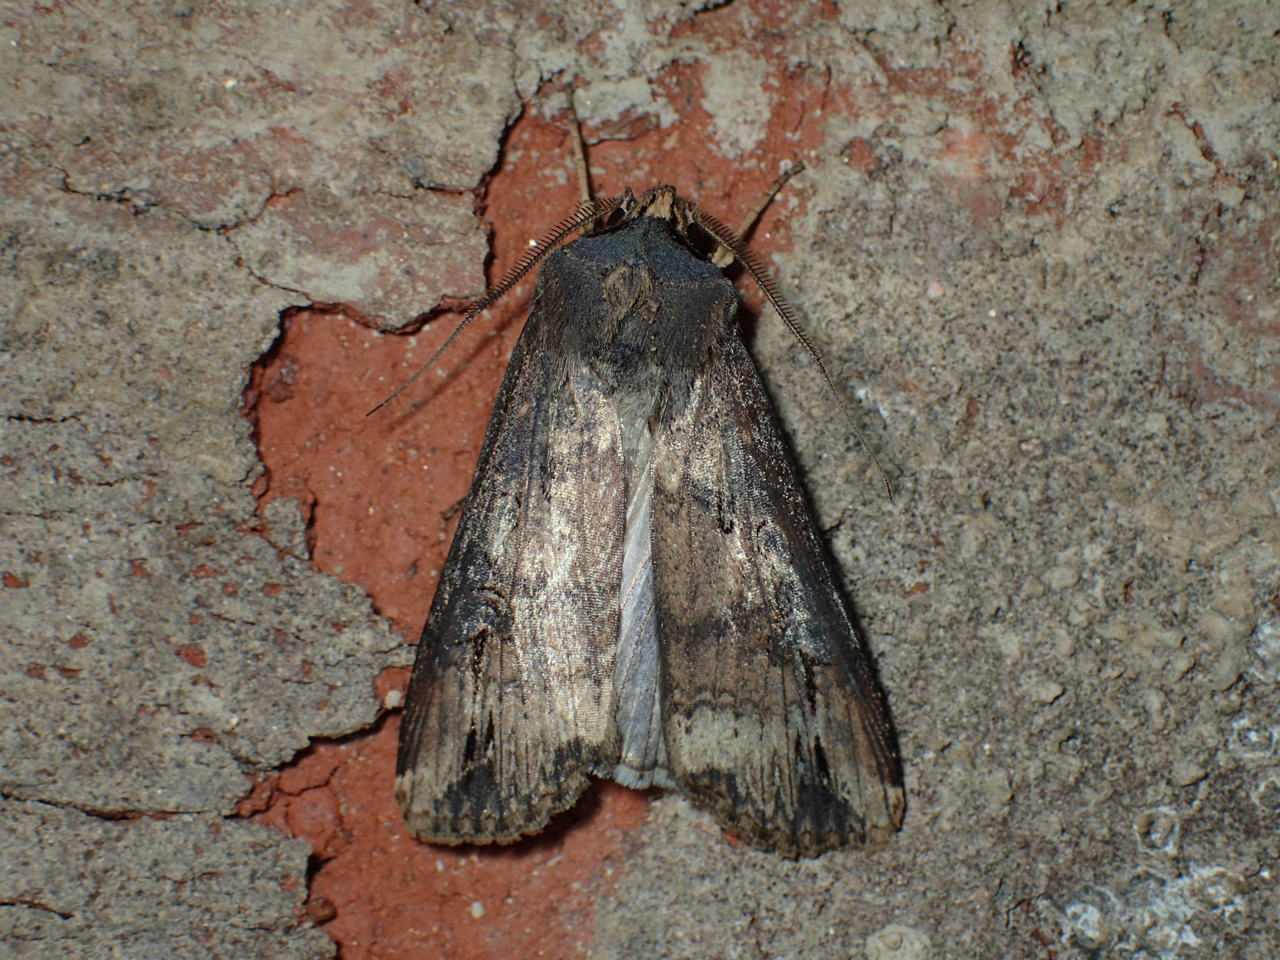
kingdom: Animalia
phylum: Arthropoda
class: Insecta
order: Lepidoptera
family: Noctuidae
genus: Agrotis
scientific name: Agrotis ipsilon
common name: Dark sword-grass
